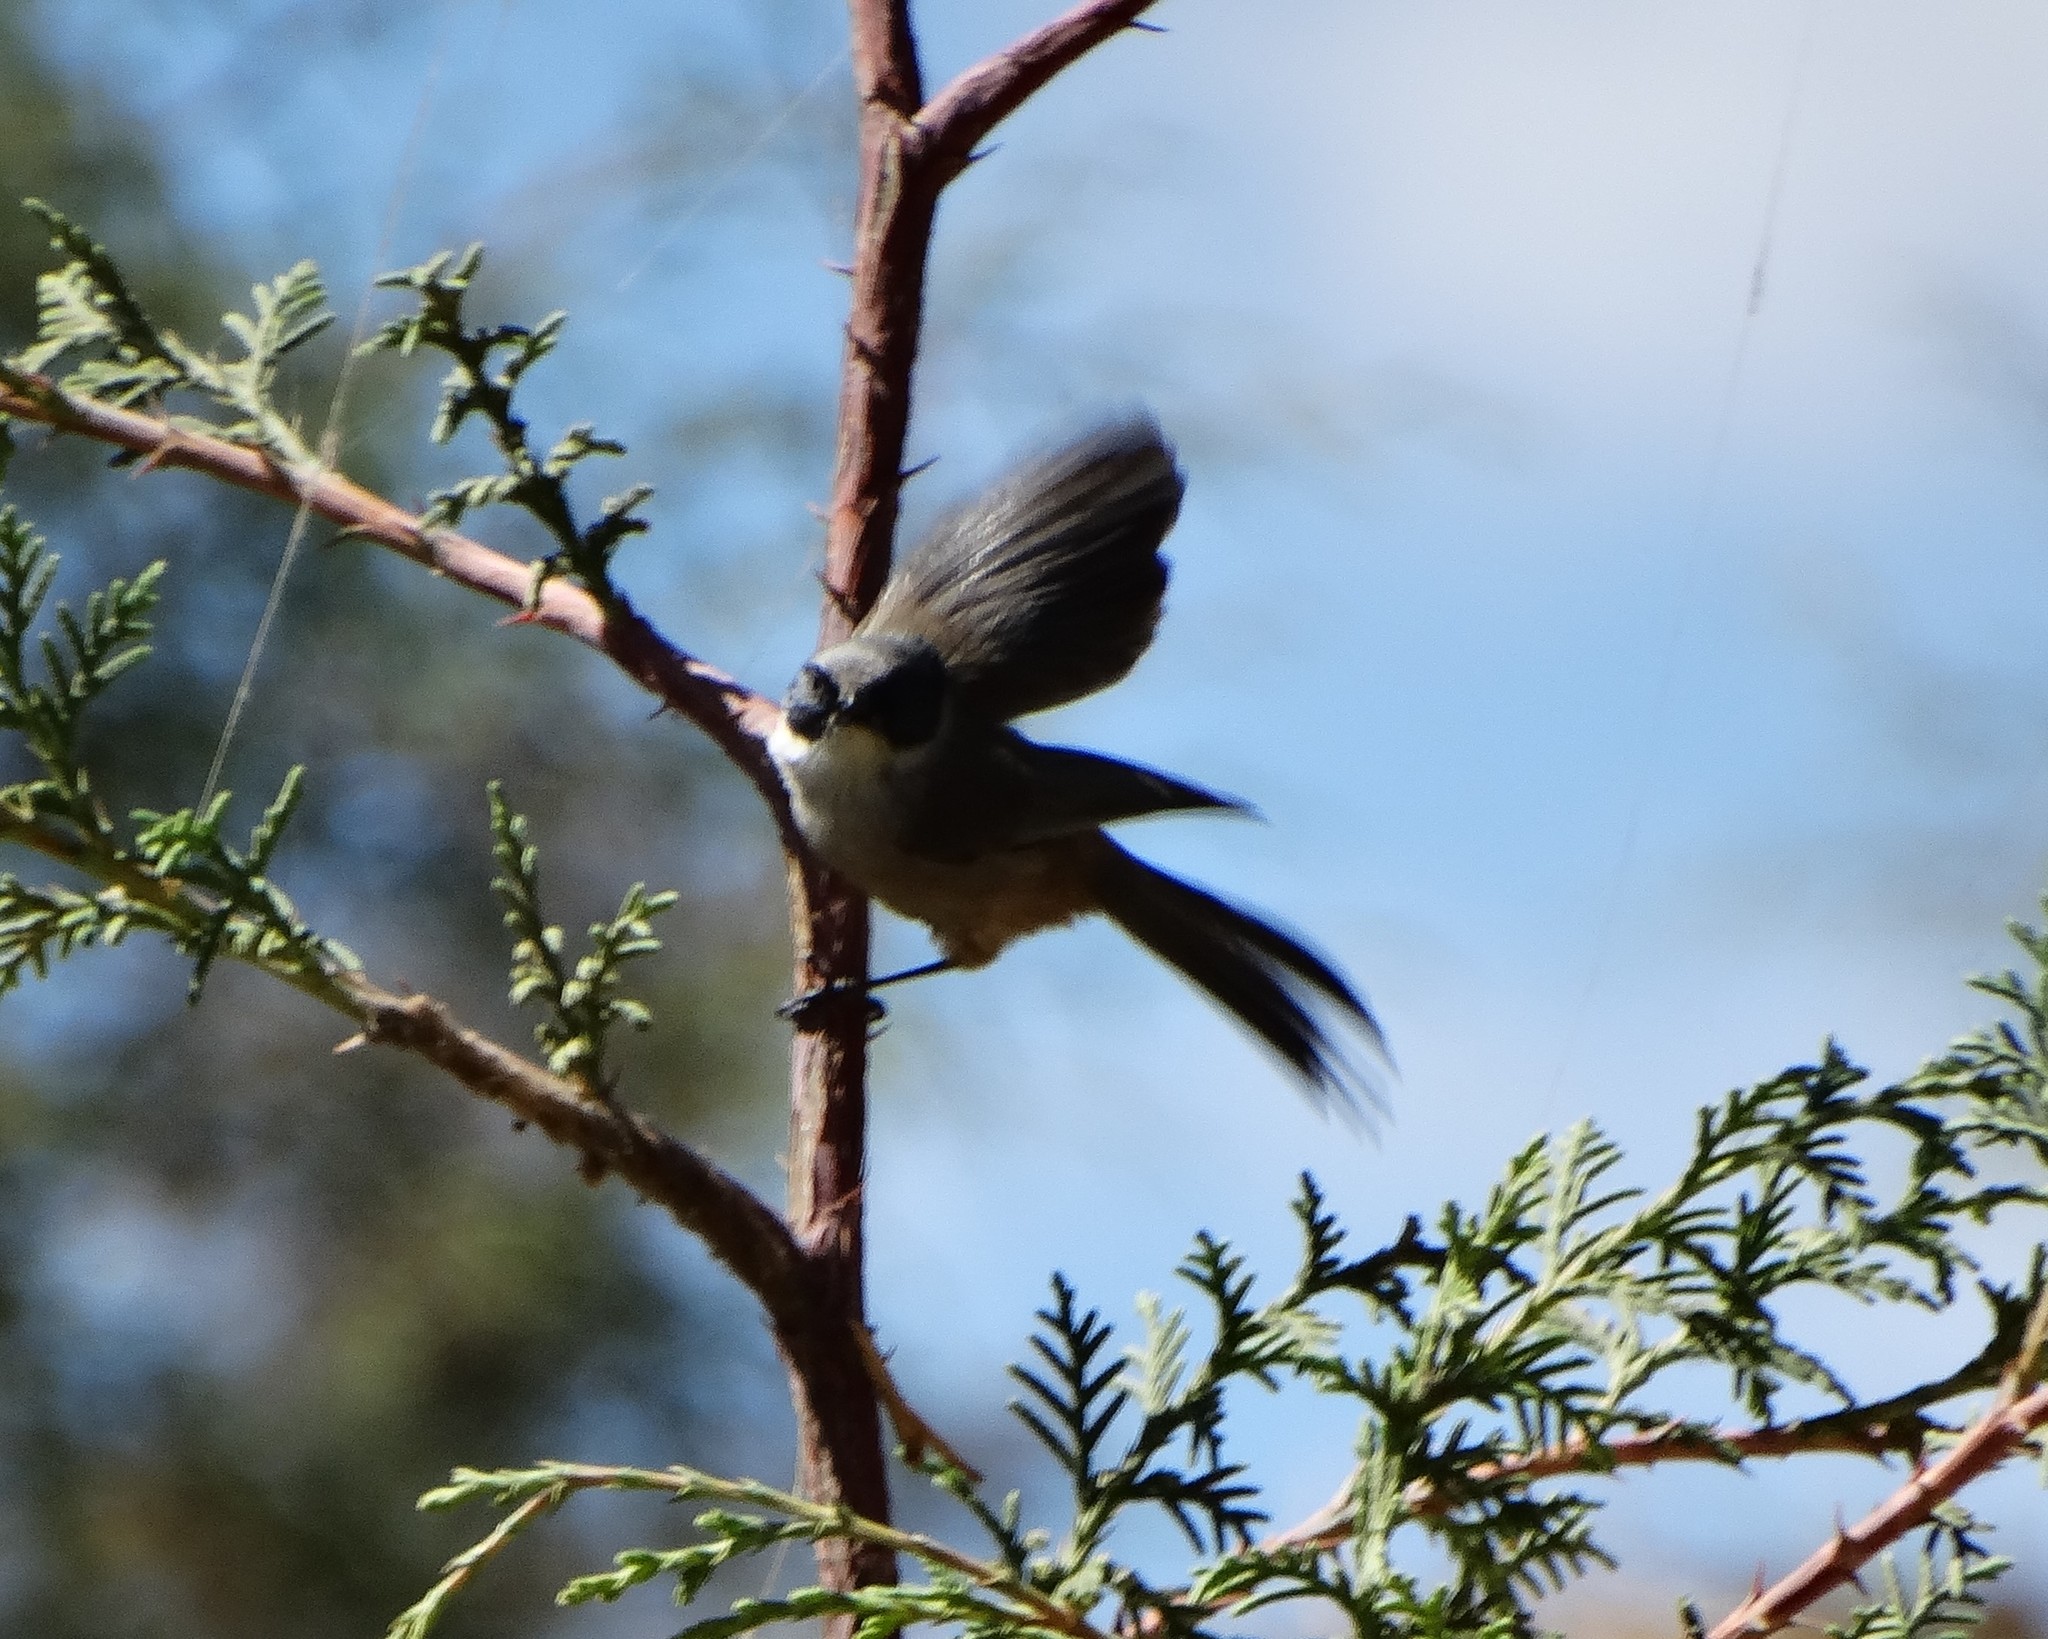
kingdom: Animalia
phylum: Chordata
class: Aves
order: Passeriformes
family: Aegithalidae
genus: Psaltriparus
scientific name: Psaltriparus minimus
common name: American bushtit
